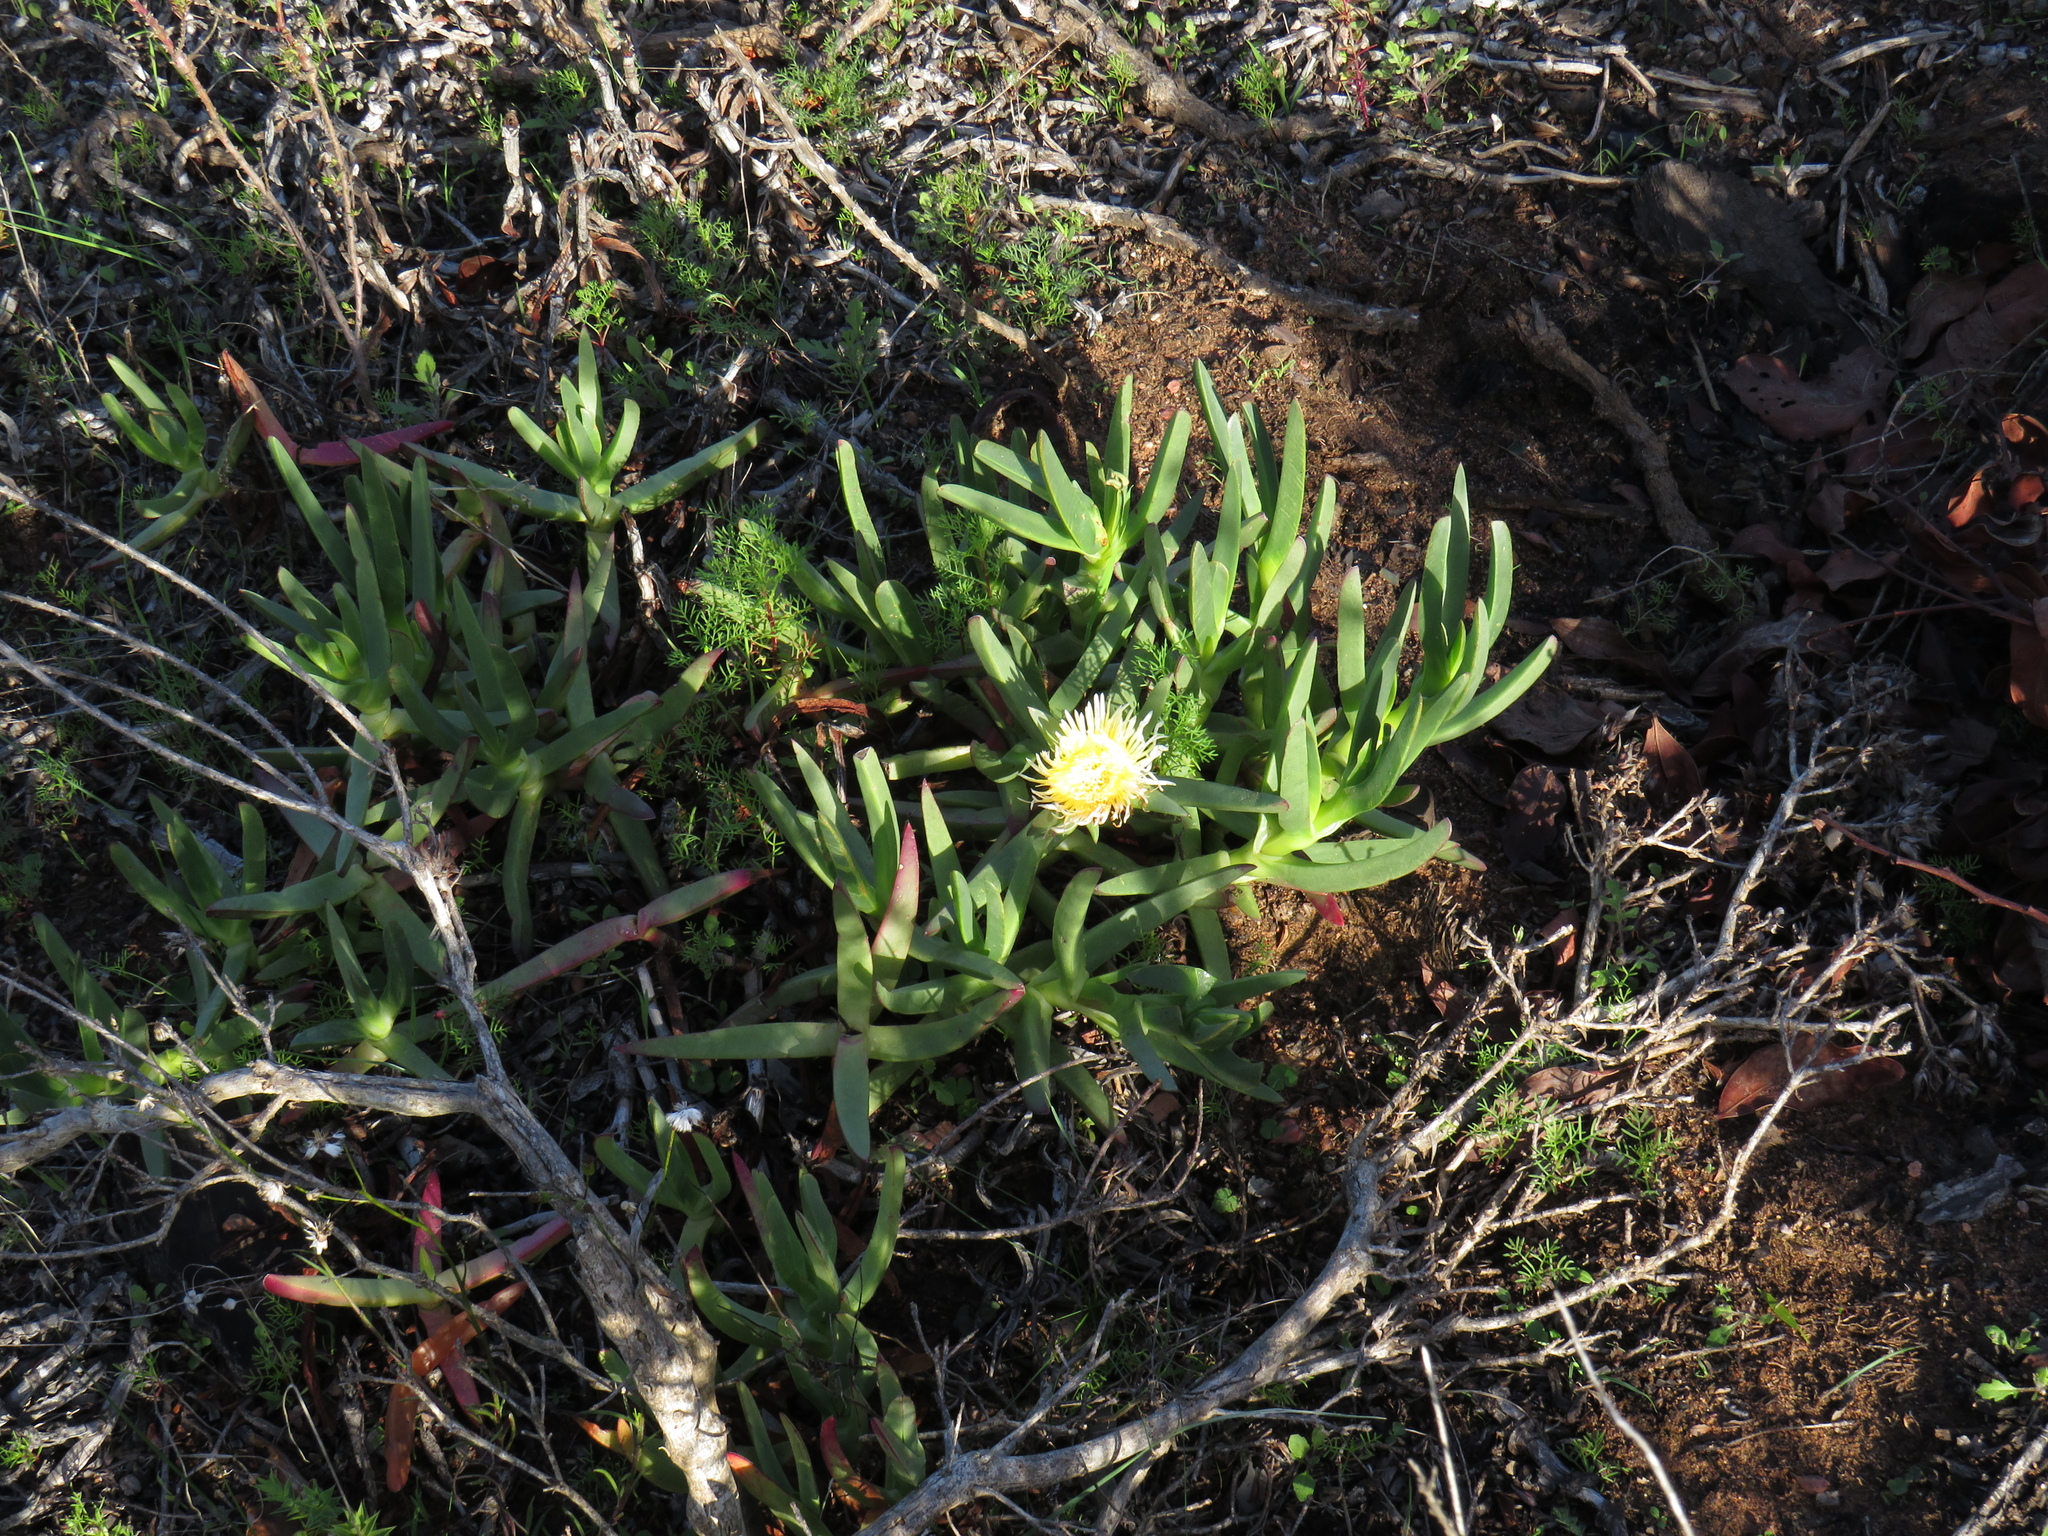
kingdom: Plantae
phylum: Tracheophyta
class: Magnoliopsida
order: Caryophyllales
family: Aizoaceae
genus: Carpobrotus
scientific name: Carpobrotus edulis
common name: Hottentot-fig
